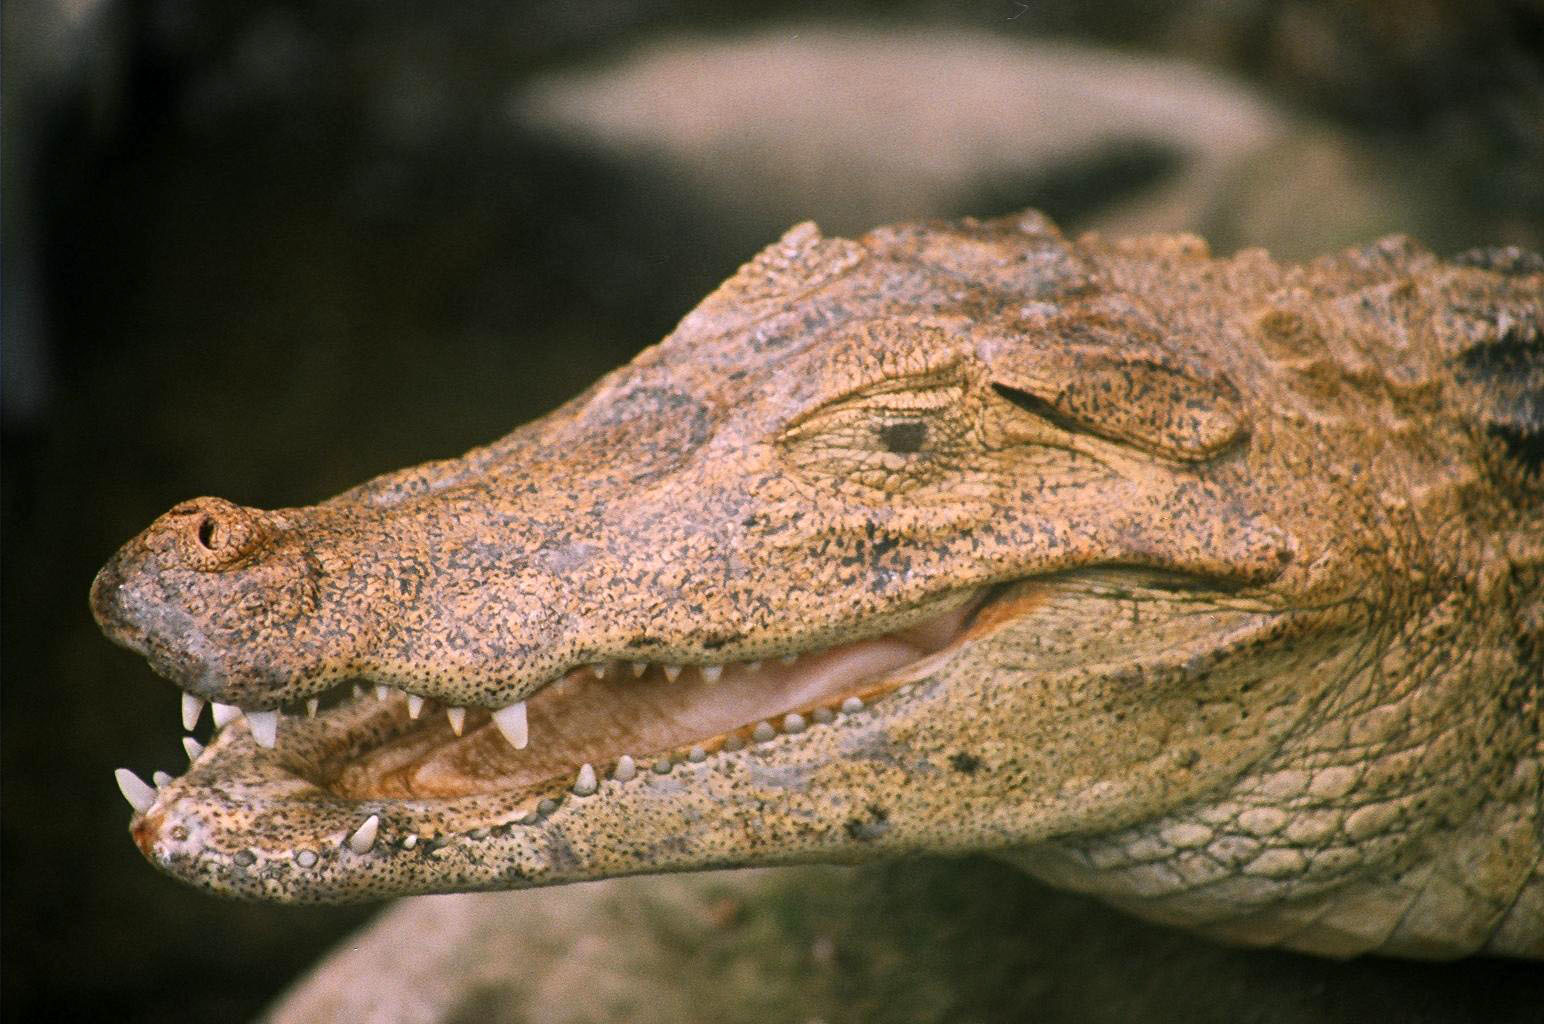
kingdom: Animalia
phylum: Chordata
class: Crocodylia
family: Crocodylidae
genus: Crocodylus
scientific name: Crocodylus acutus
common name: American crocodile
